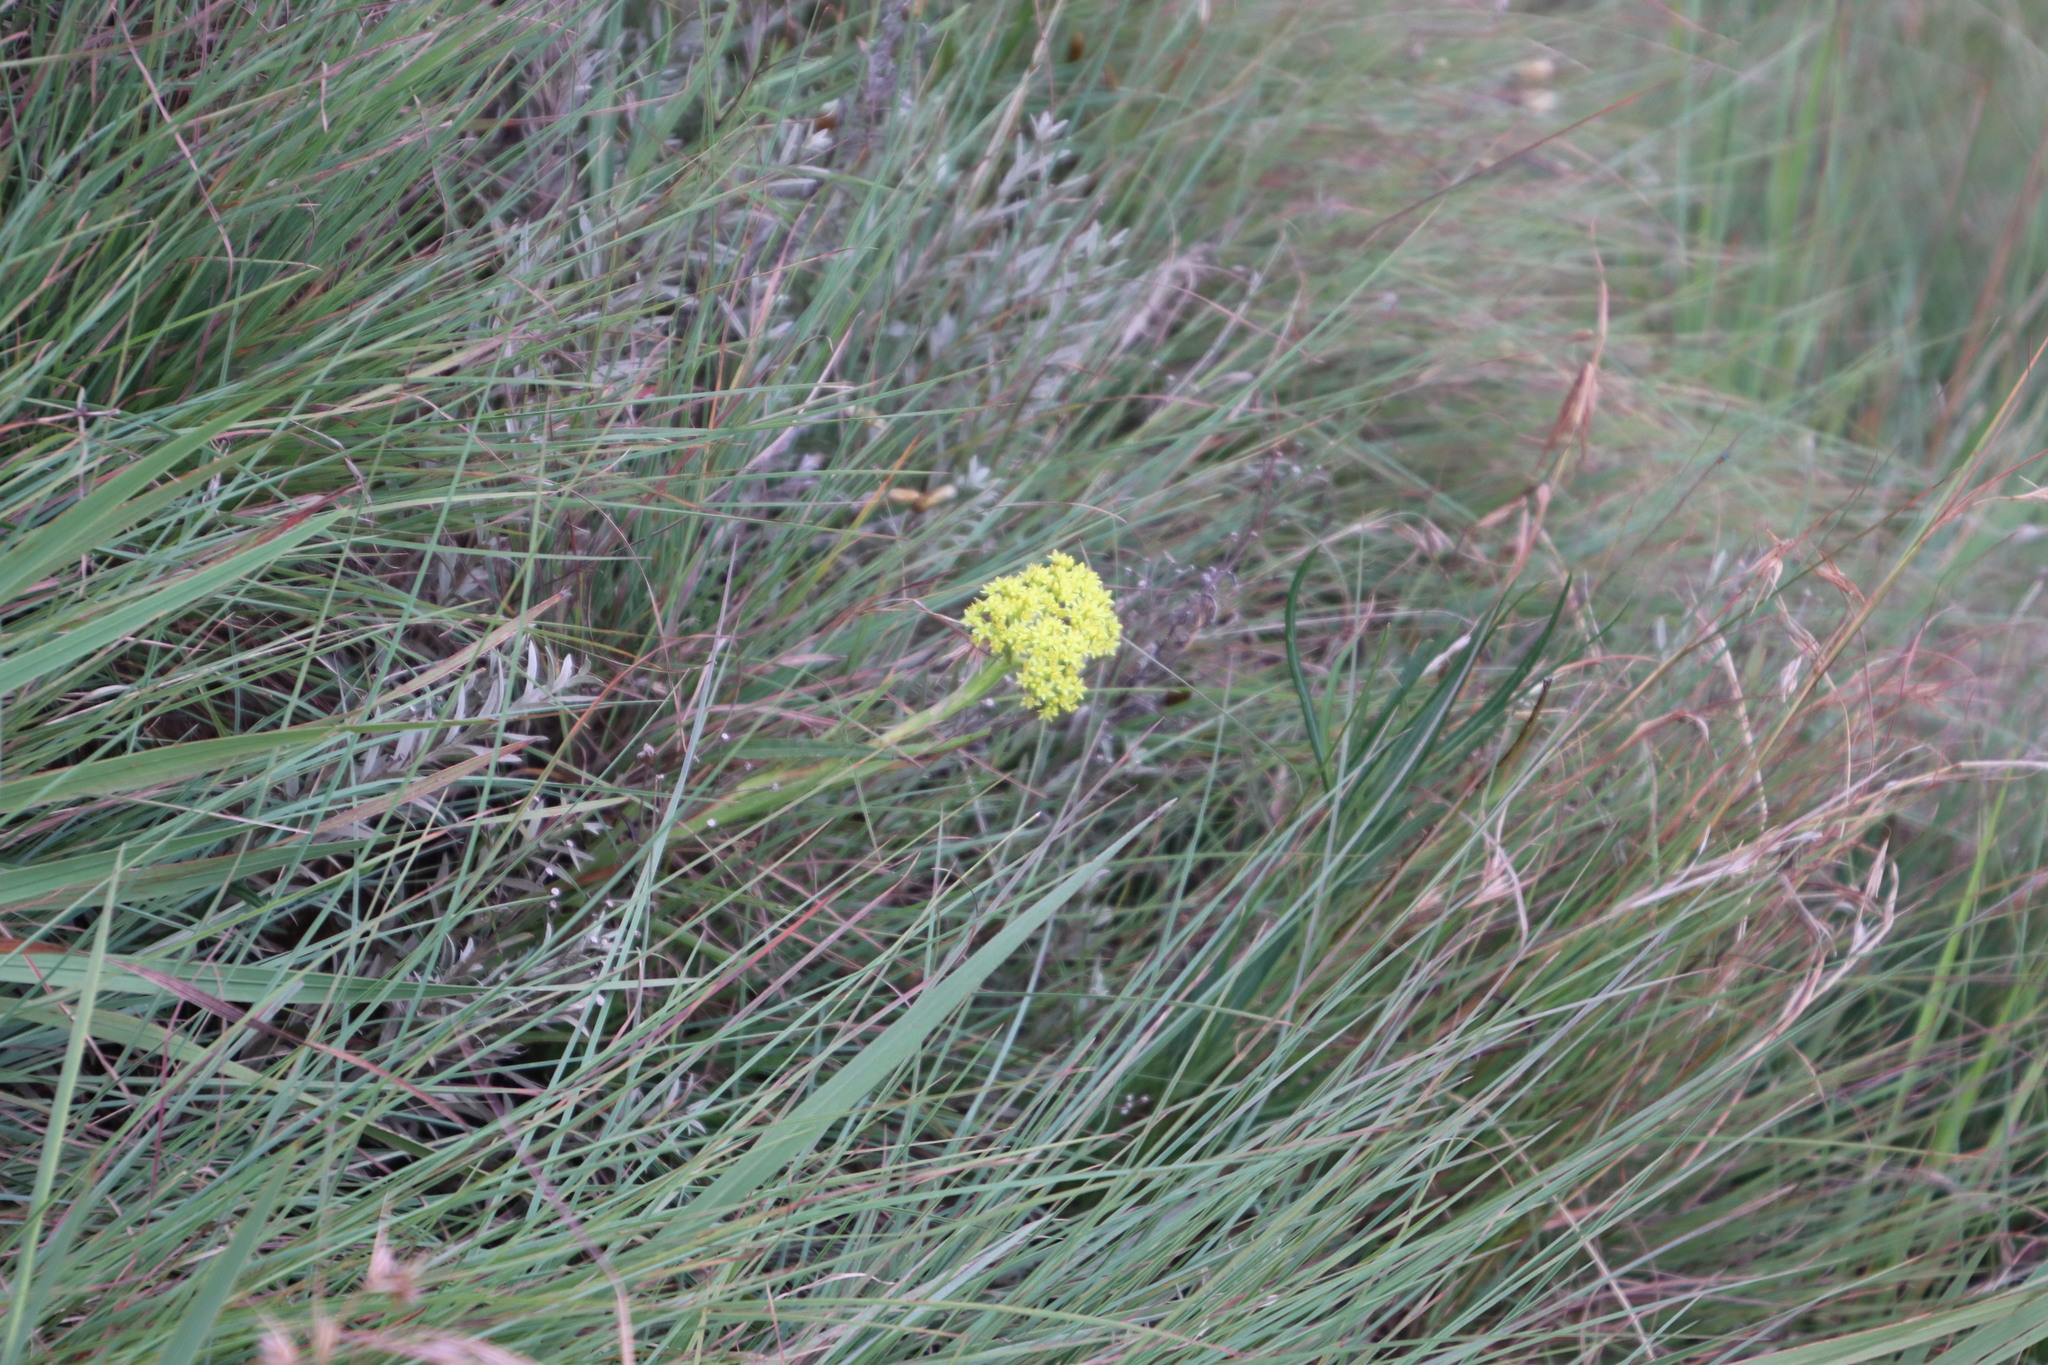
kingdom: Plantae
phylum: Tracheophyta
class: Magnoliopsida
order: Saxifragales
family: Crassulaceae
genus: Crassula
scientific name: Crassula vaginata
